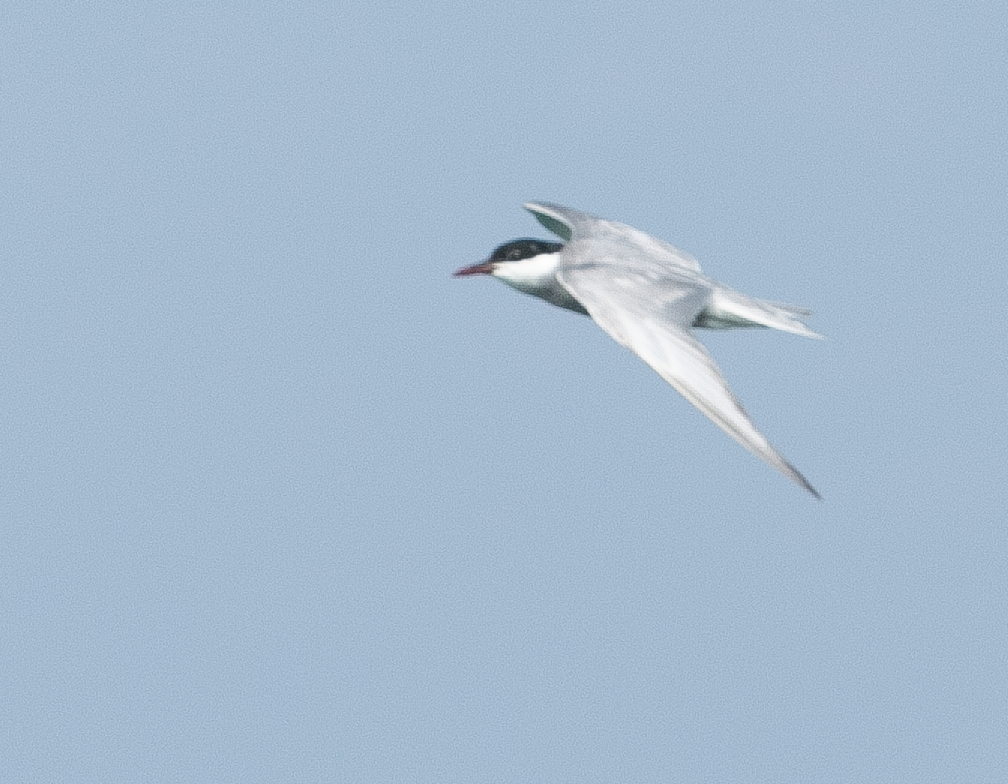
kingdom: Animalia
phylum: Chordata
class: Aves
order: Charadriiformes
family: Laridae
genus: Chlidonias
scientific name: Chlidonias hybrida
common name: Whiskered tern
